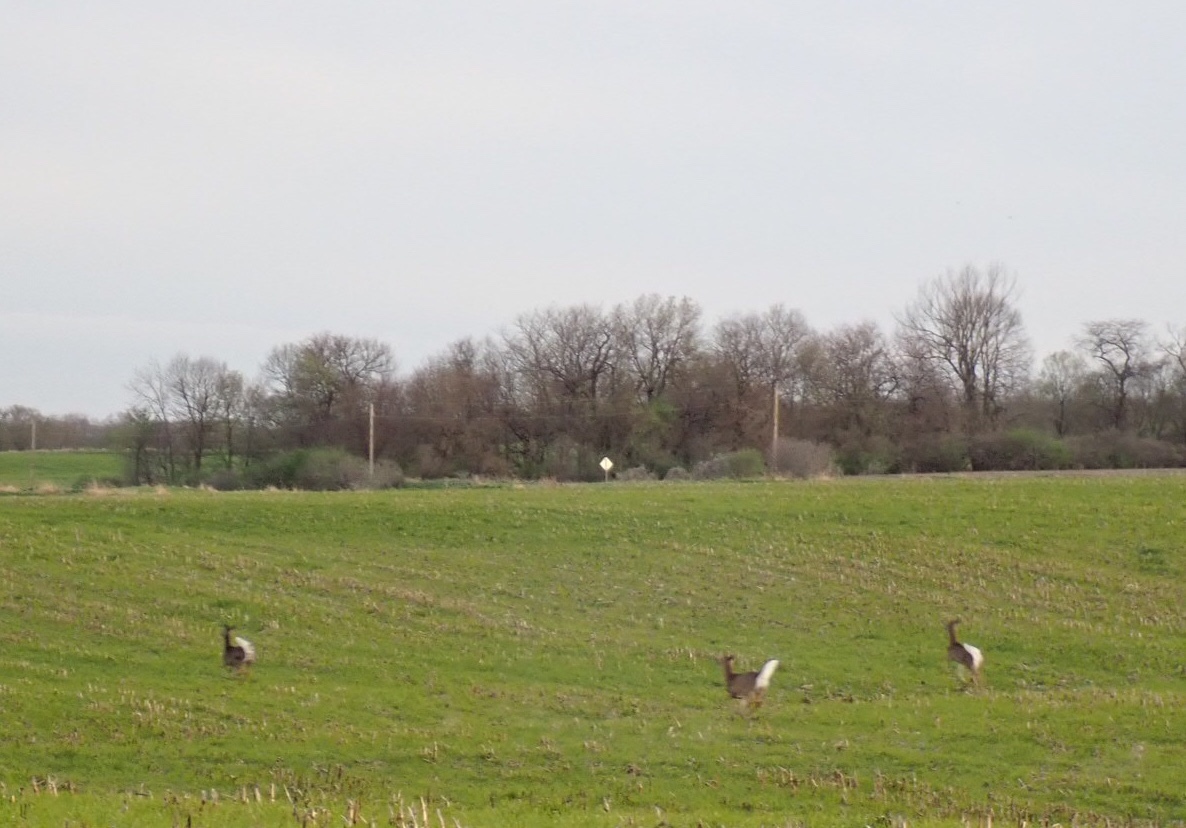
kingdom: Animalia
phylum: Chordata
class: Mammalia
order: Artiodactyla
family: Cervidae
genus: Odocoileus
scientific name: Odocoileus virginianus
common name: White-tailed deer
